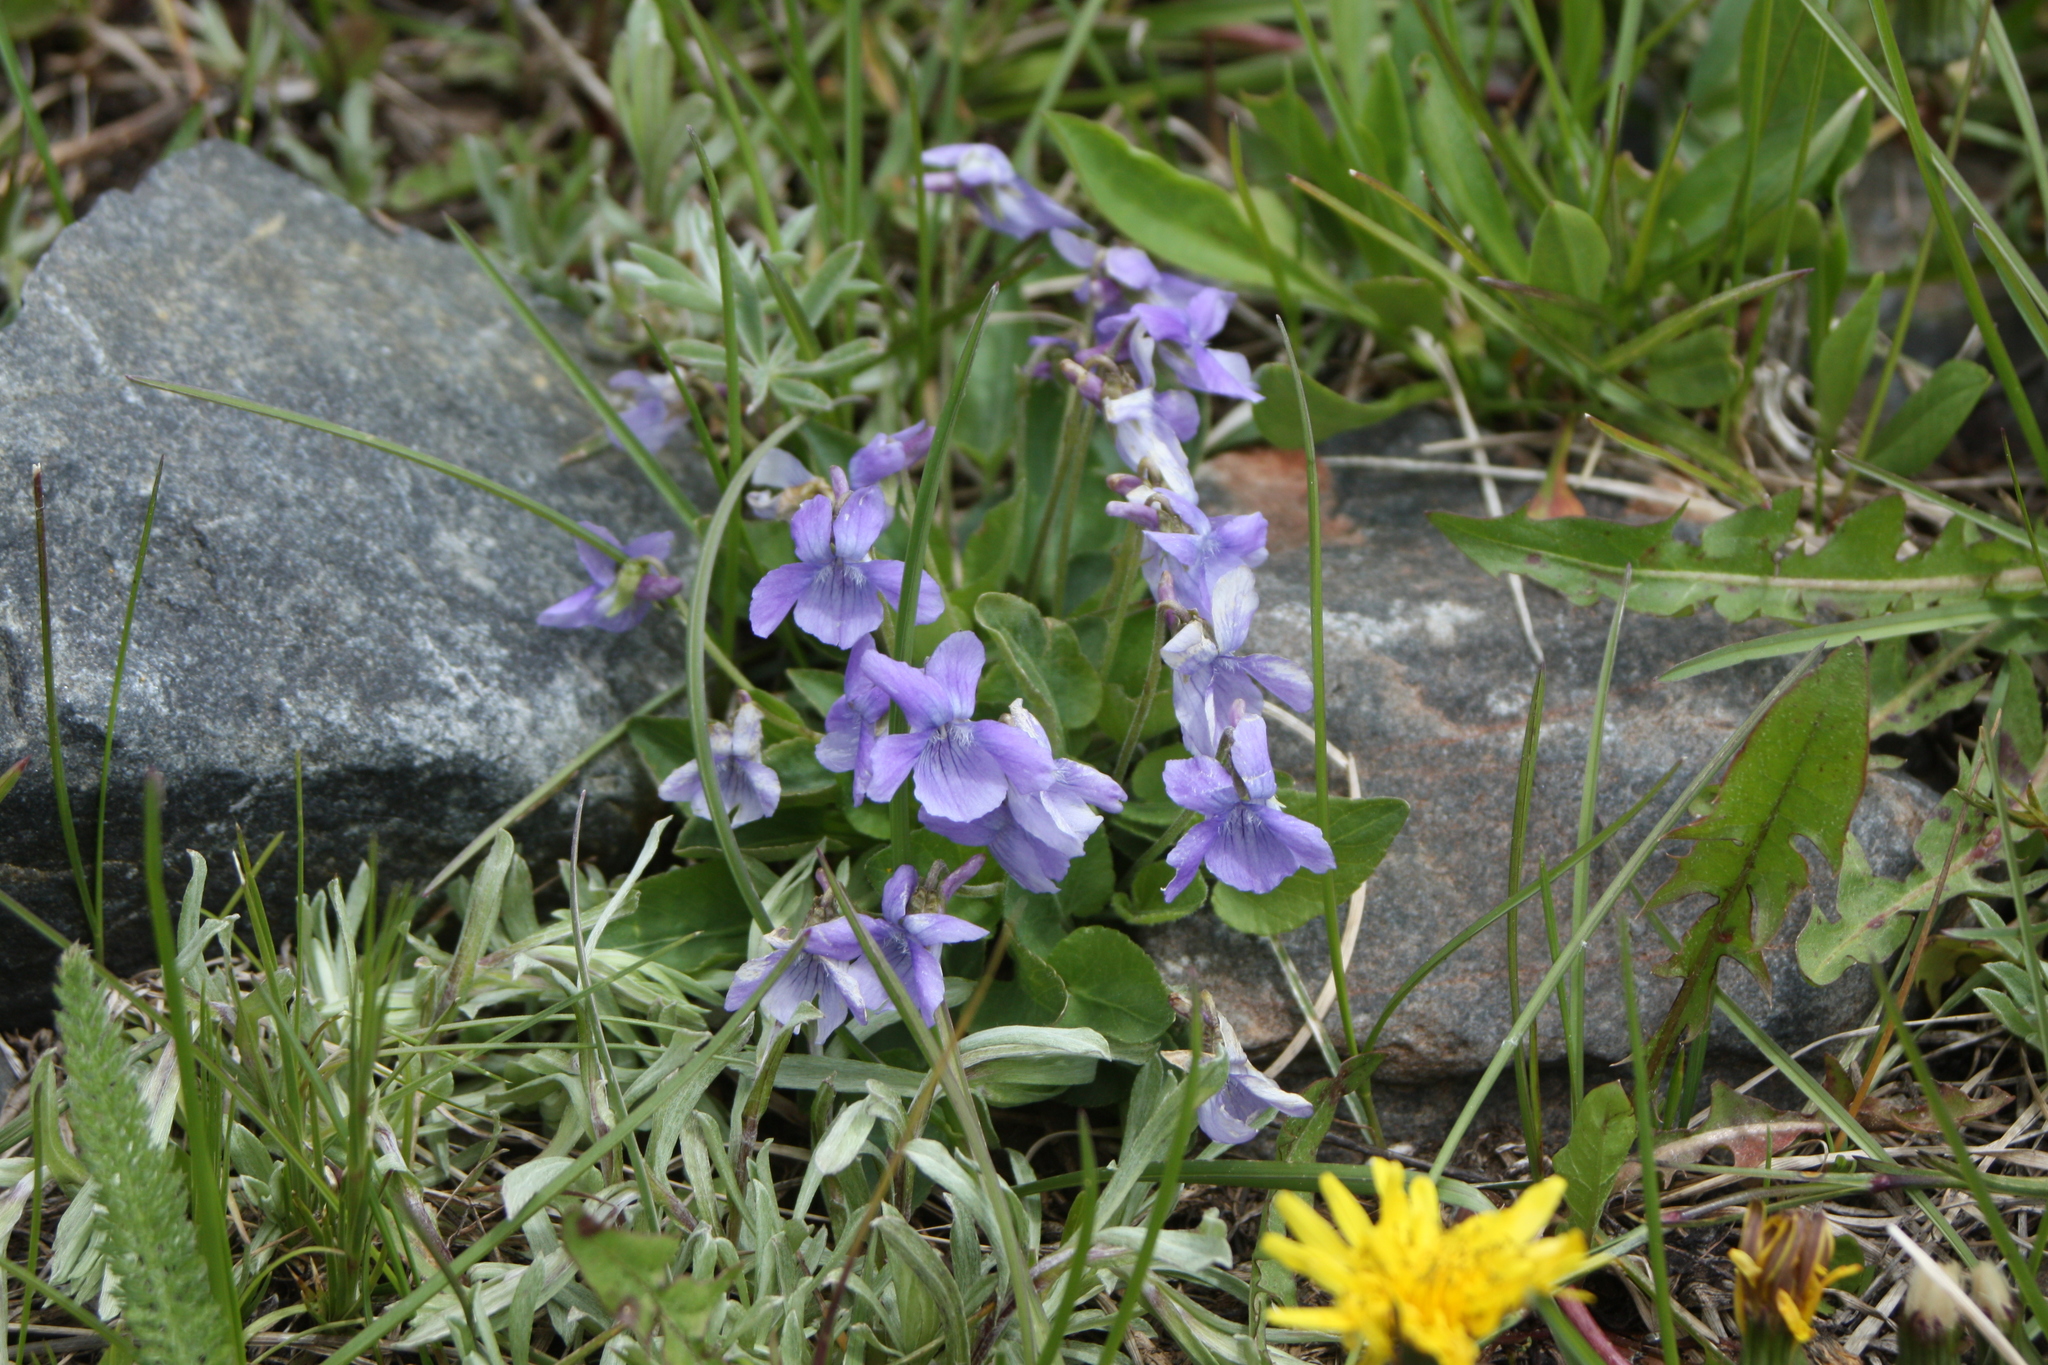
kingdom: Plantae
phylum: Tracheophyta
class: Magnoliopsida
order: Malpighiales
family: Violaceae
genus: Viola
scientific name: Viola adunca
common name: Sand violet
